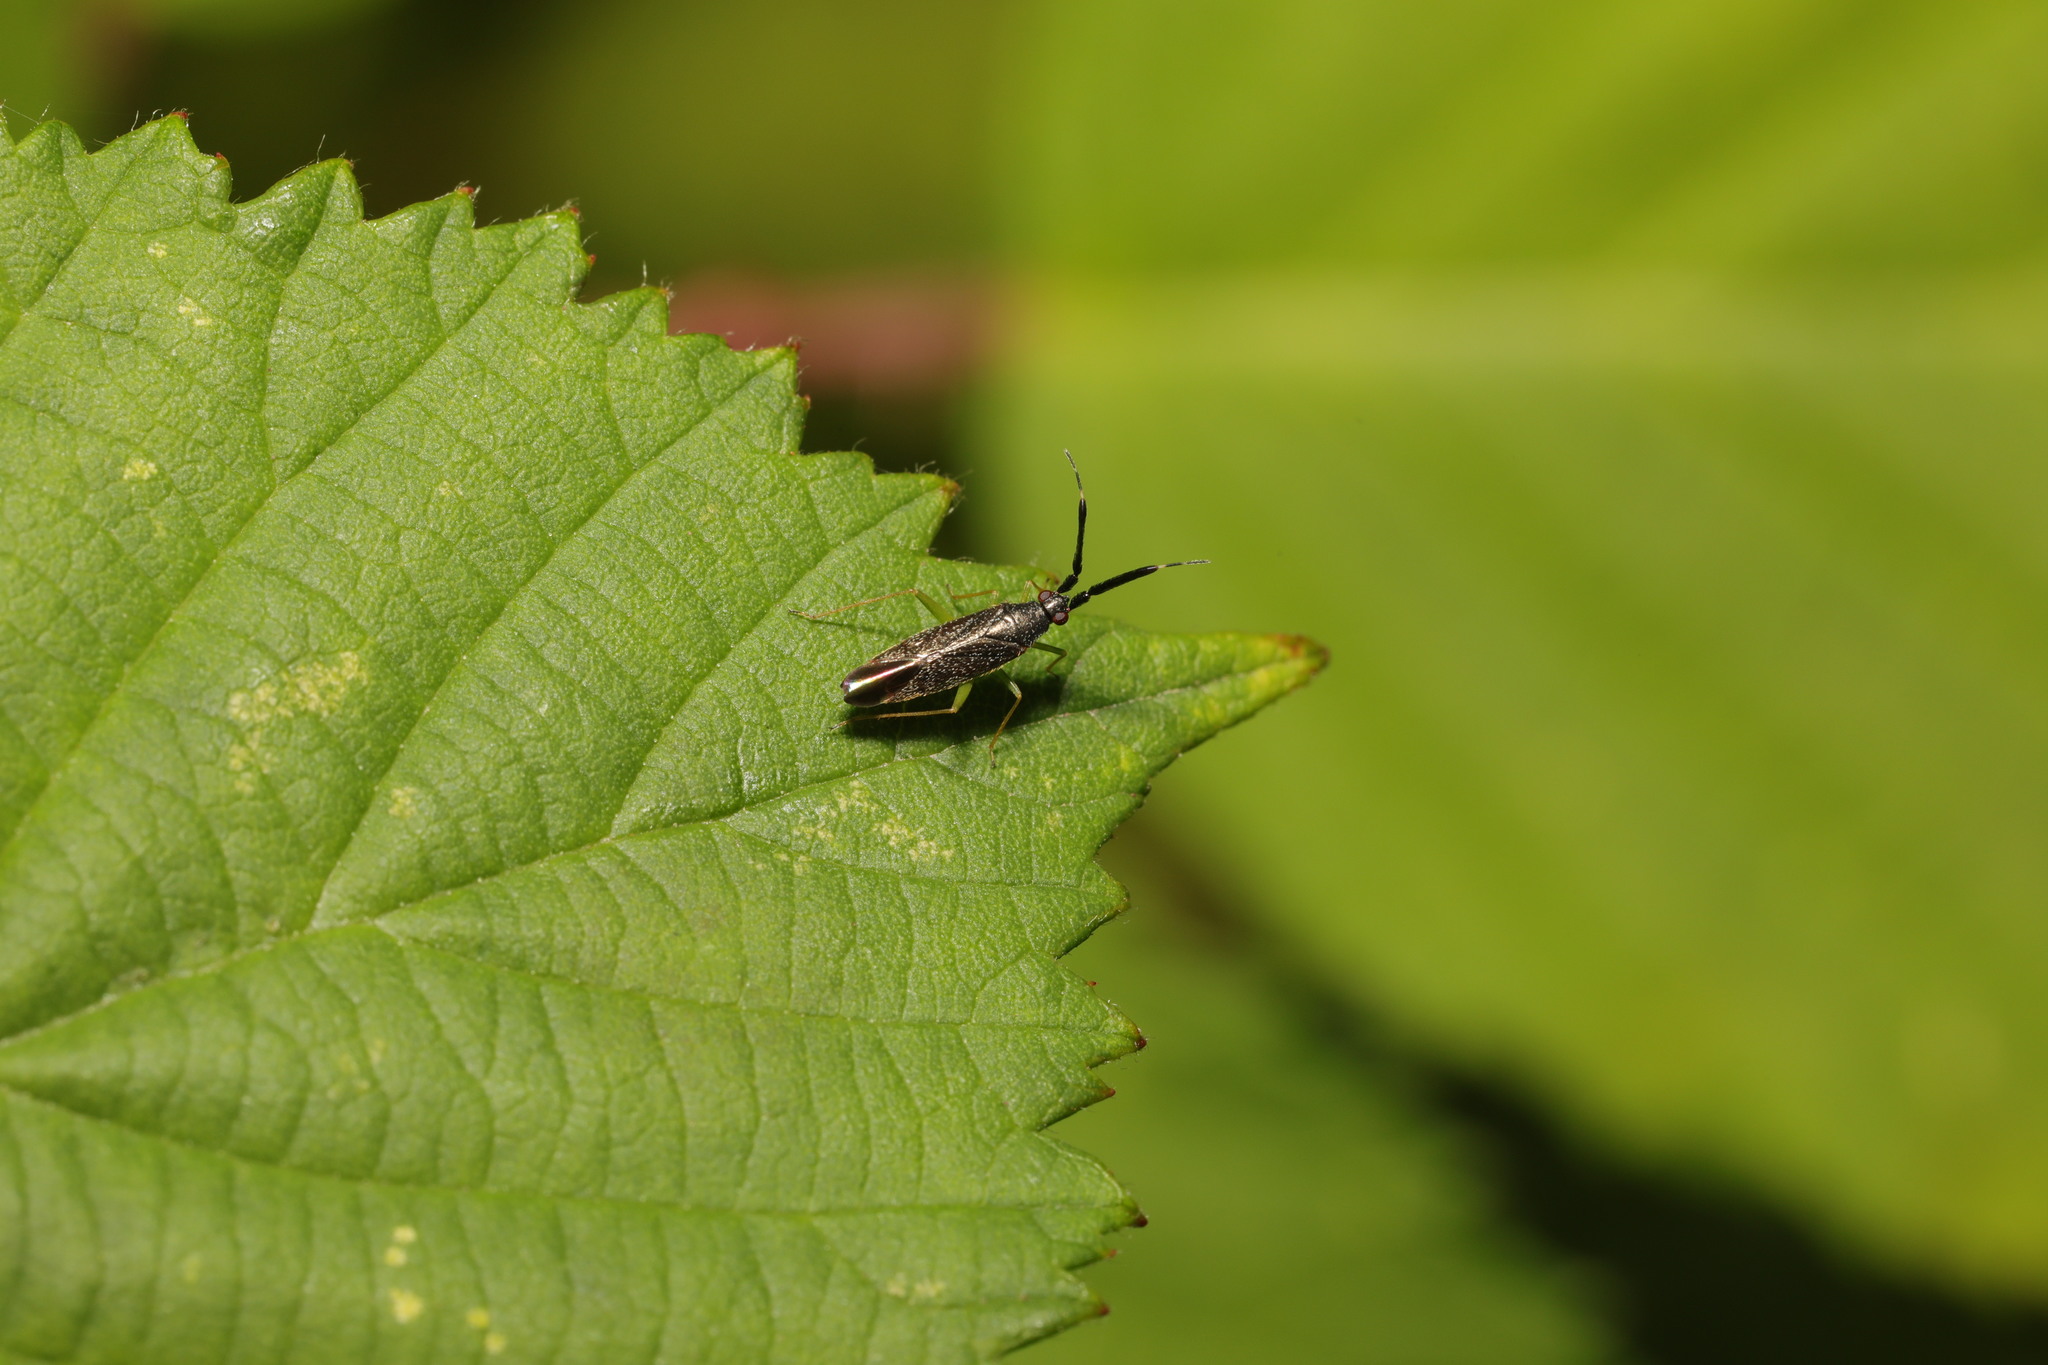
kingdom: Animalia
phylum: Arthropoda
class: Insecta
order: Hemiptera
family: Miridae
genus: Heterotoma
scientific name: Heterotoma planicornis
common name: Plant bug
